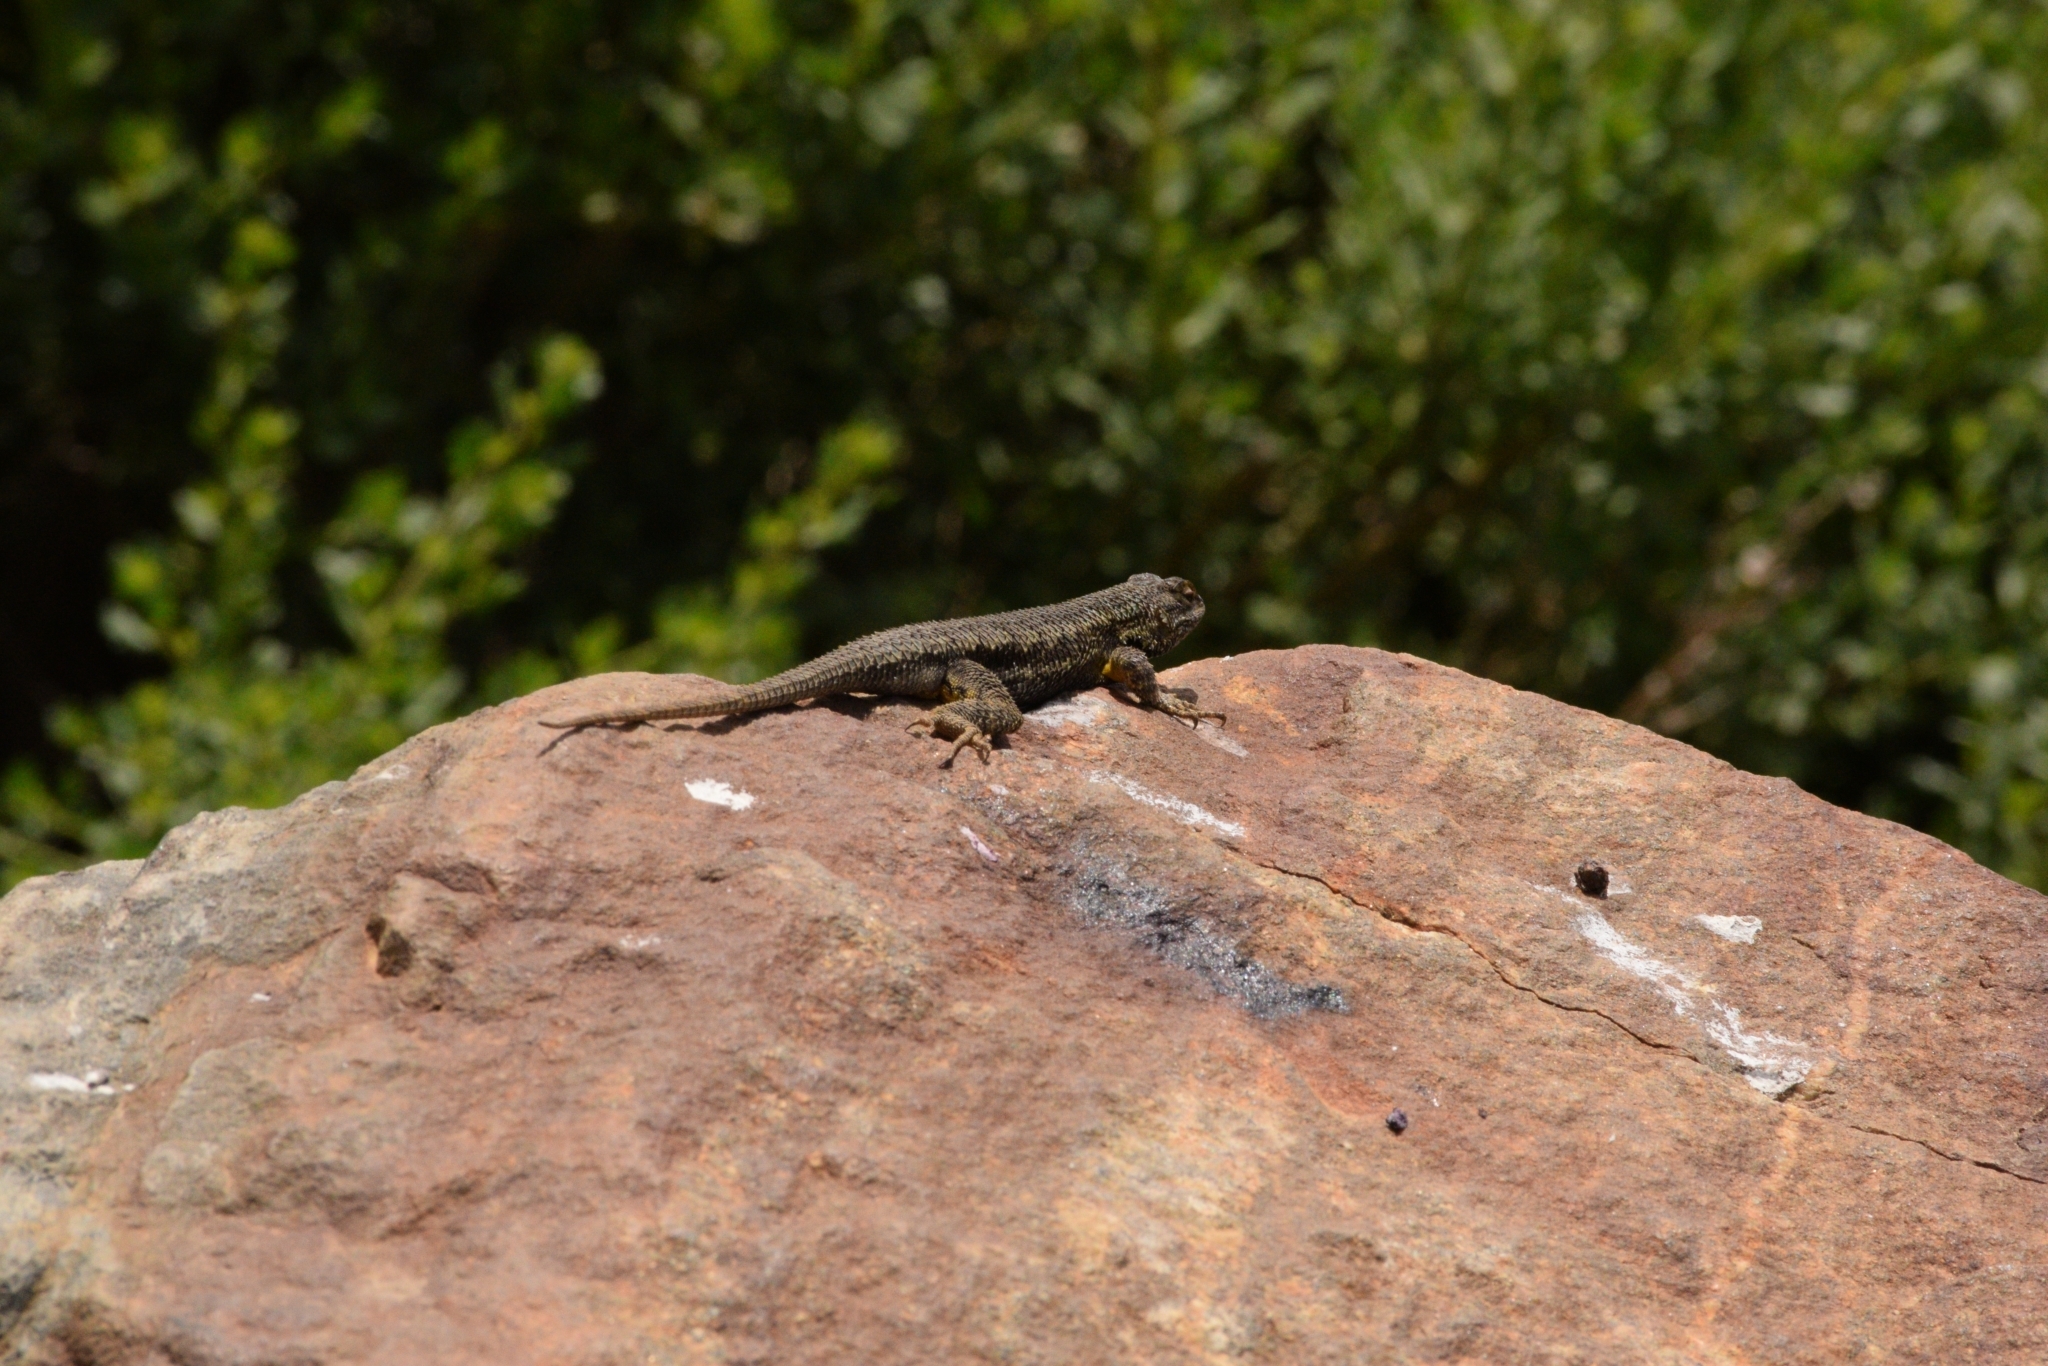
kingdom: Animalia
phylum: Chordata
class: Squamata
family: Phrynosomatidae
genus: Sceloporus
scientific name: Sceloporus occidentalis
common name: Western fence lizard
